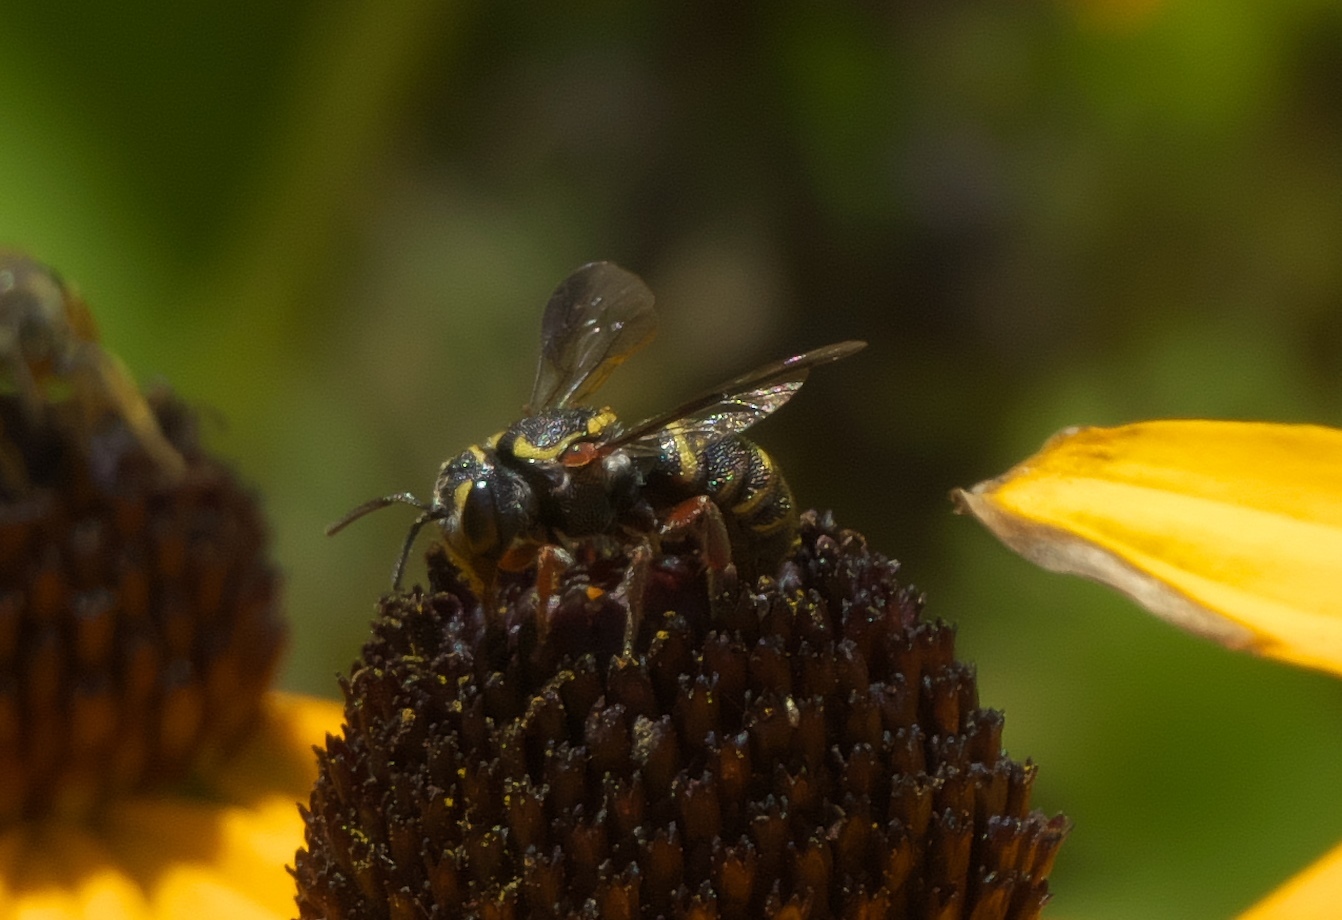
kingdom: Animalia
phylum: Arthropoda
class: Insecta
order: Hymenoptera
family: Megachilidae
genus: Stelis
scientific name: Stelis costalis
